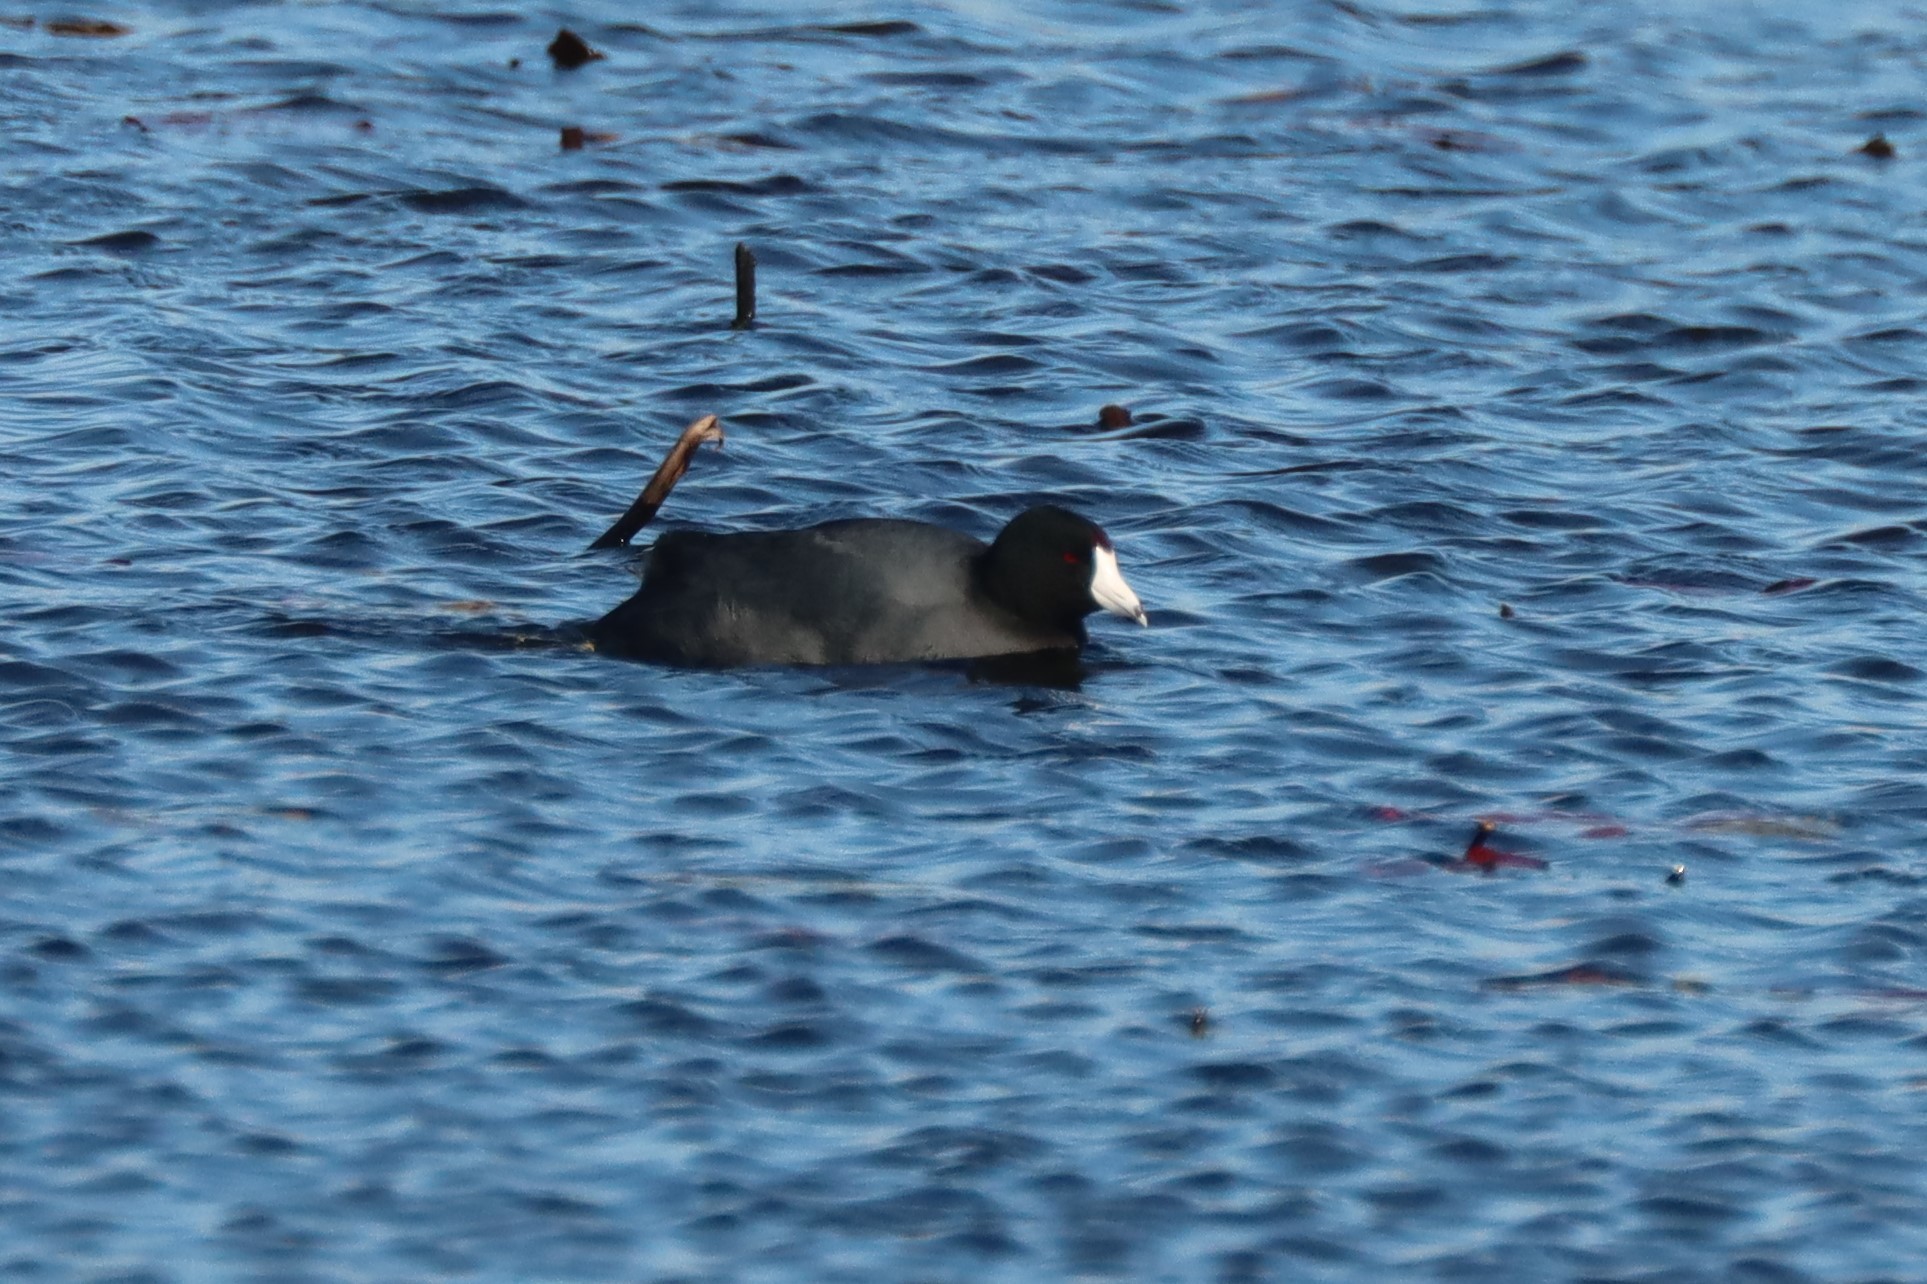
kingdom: Animalia
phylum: Chordata
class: Aves
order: Gruiformes
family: Rallidae
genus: Fulica
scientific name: Fulica americana
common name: American coot
